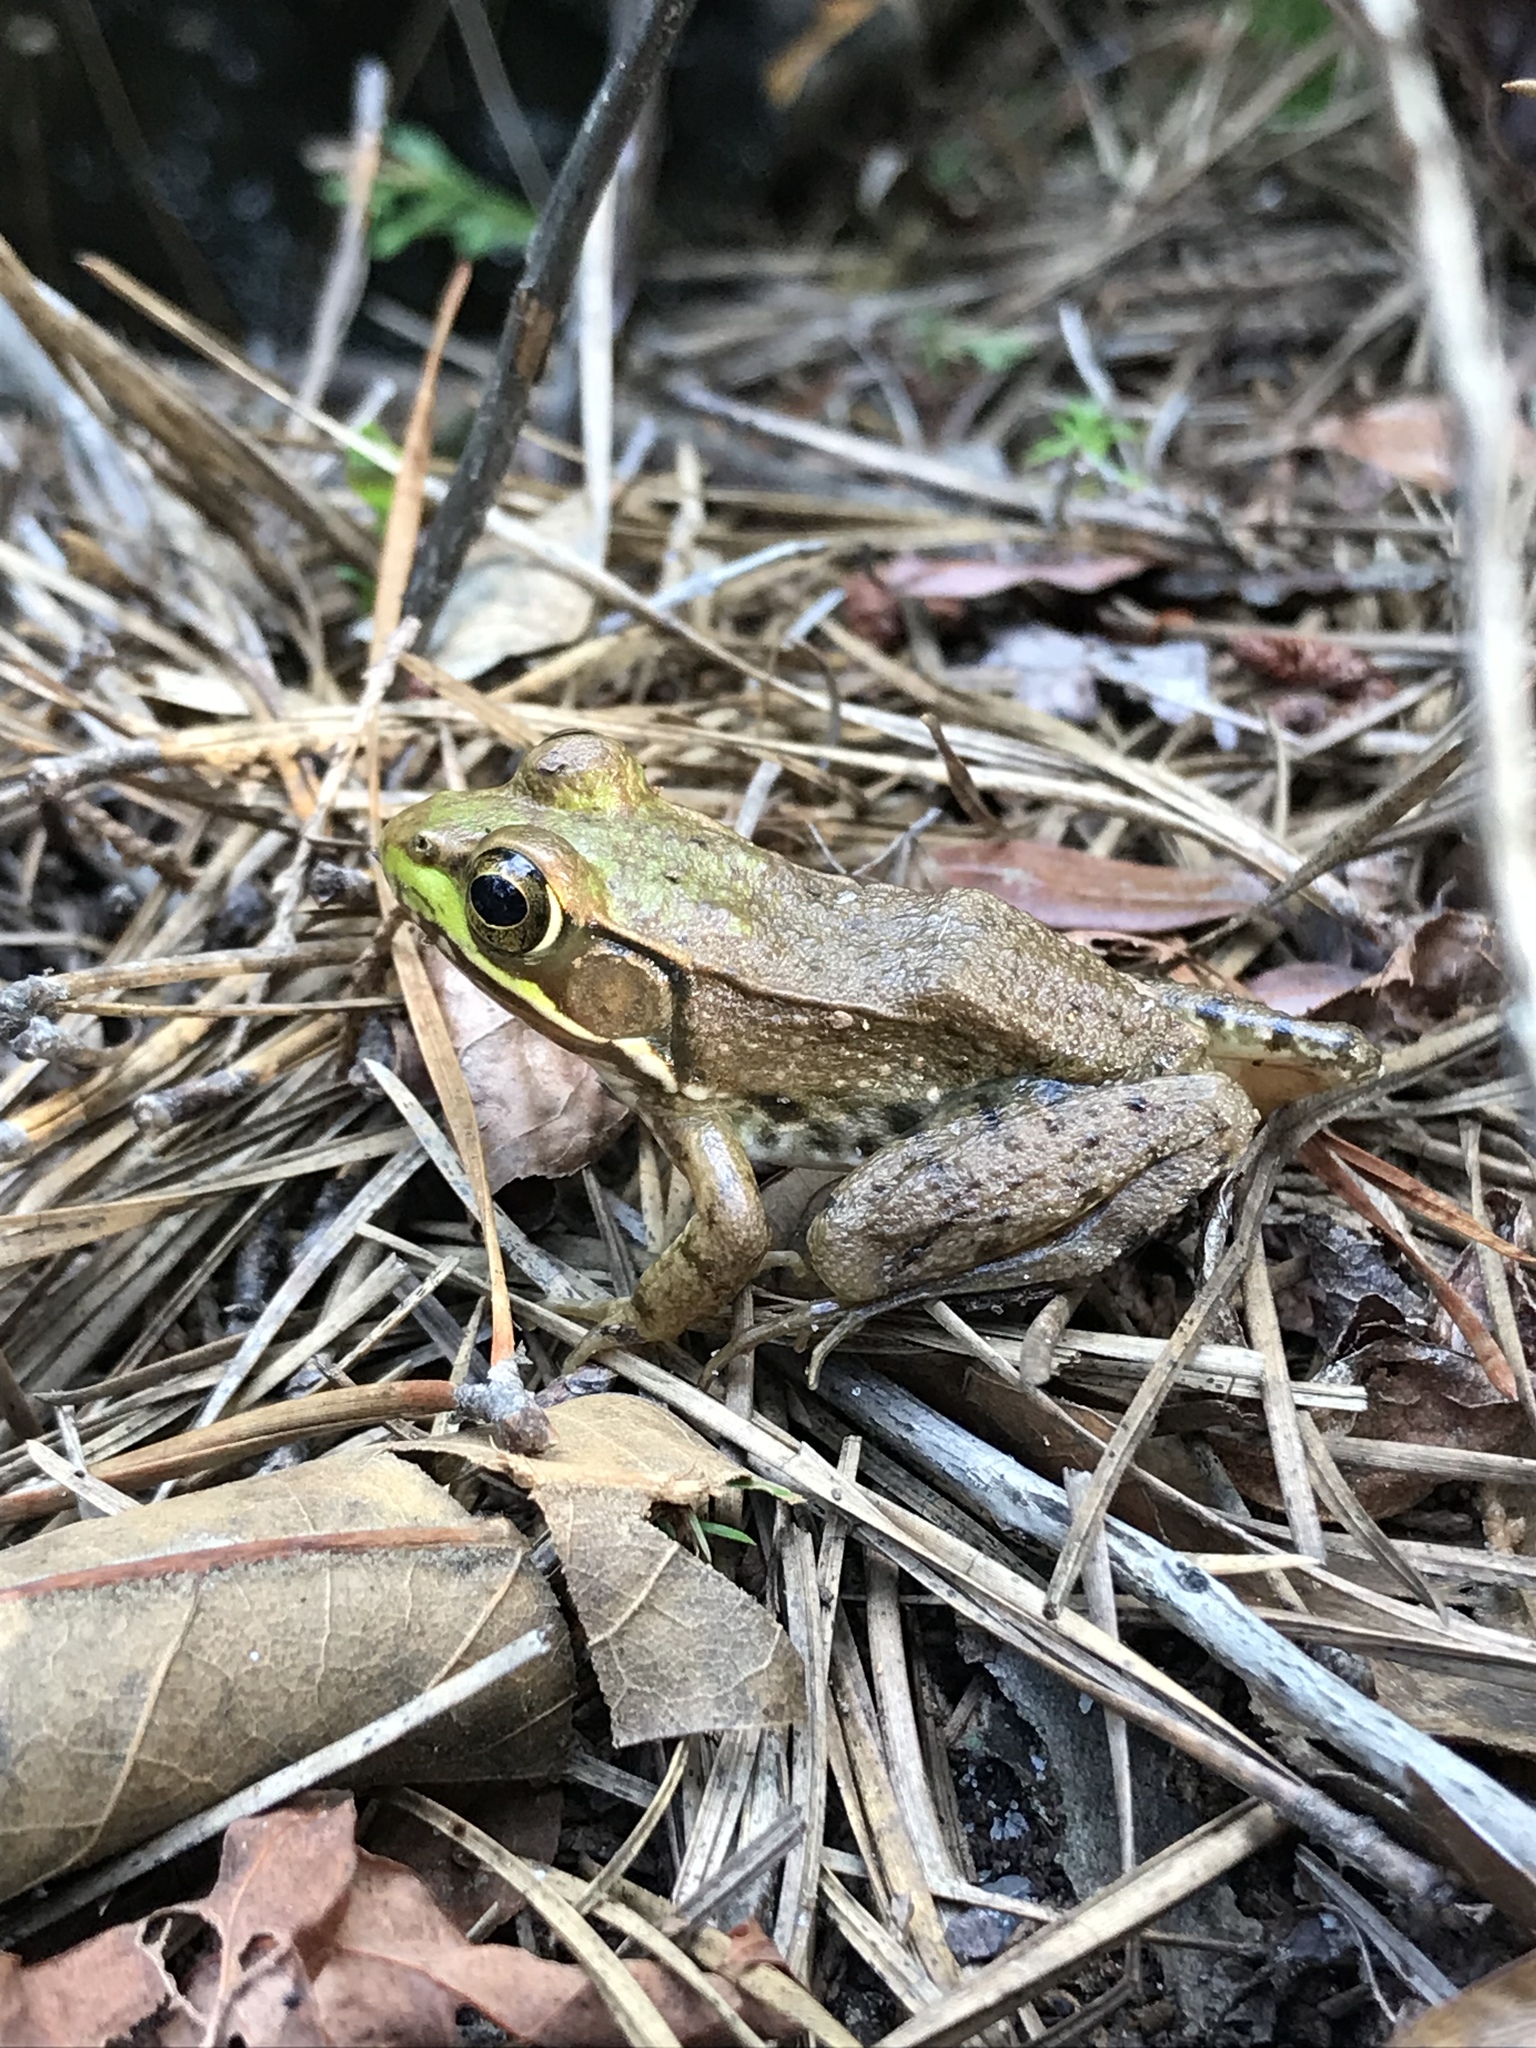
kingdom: Animalia
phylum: Chordata
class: Amphibia
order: Anura
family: Ranidae
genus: Lithobates
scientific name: Lithobates clamitans
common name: Green frog
